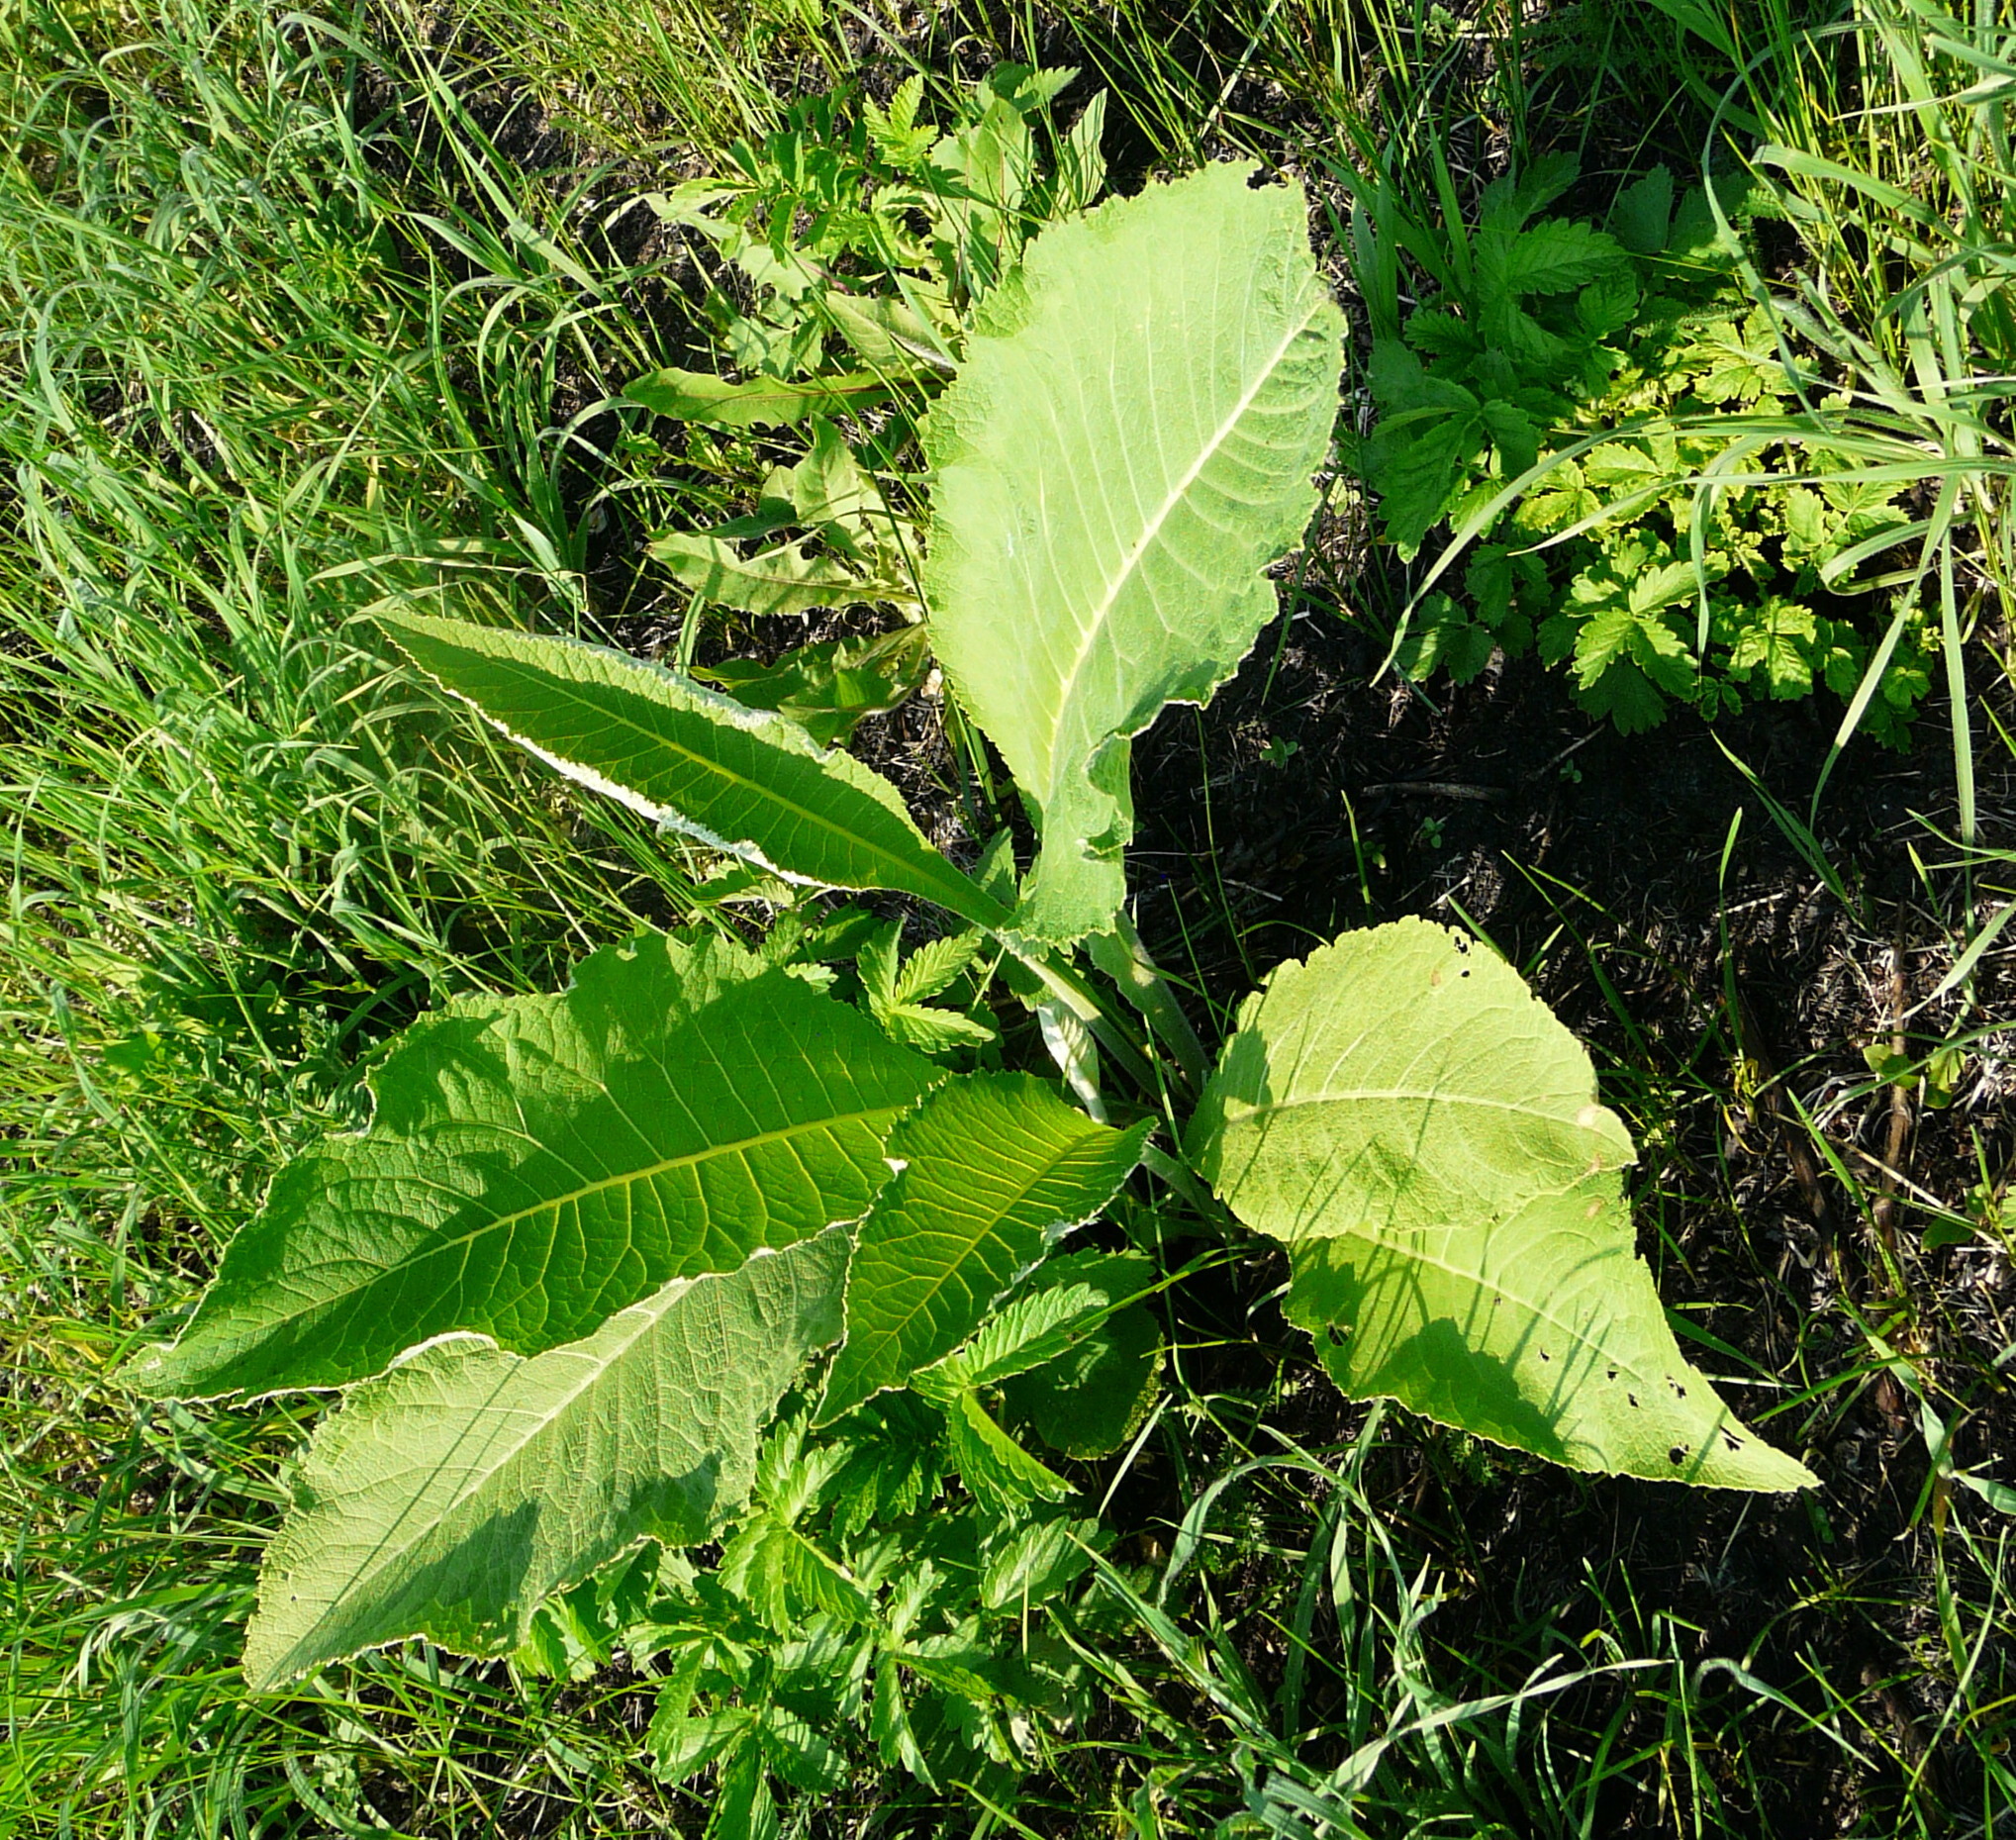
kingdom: Plantae
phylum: Tracheophyta
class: Magnoliopsida
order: Asterales
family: Asteraceae
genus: Inula
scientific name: Inula helenium
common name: Elecampane
